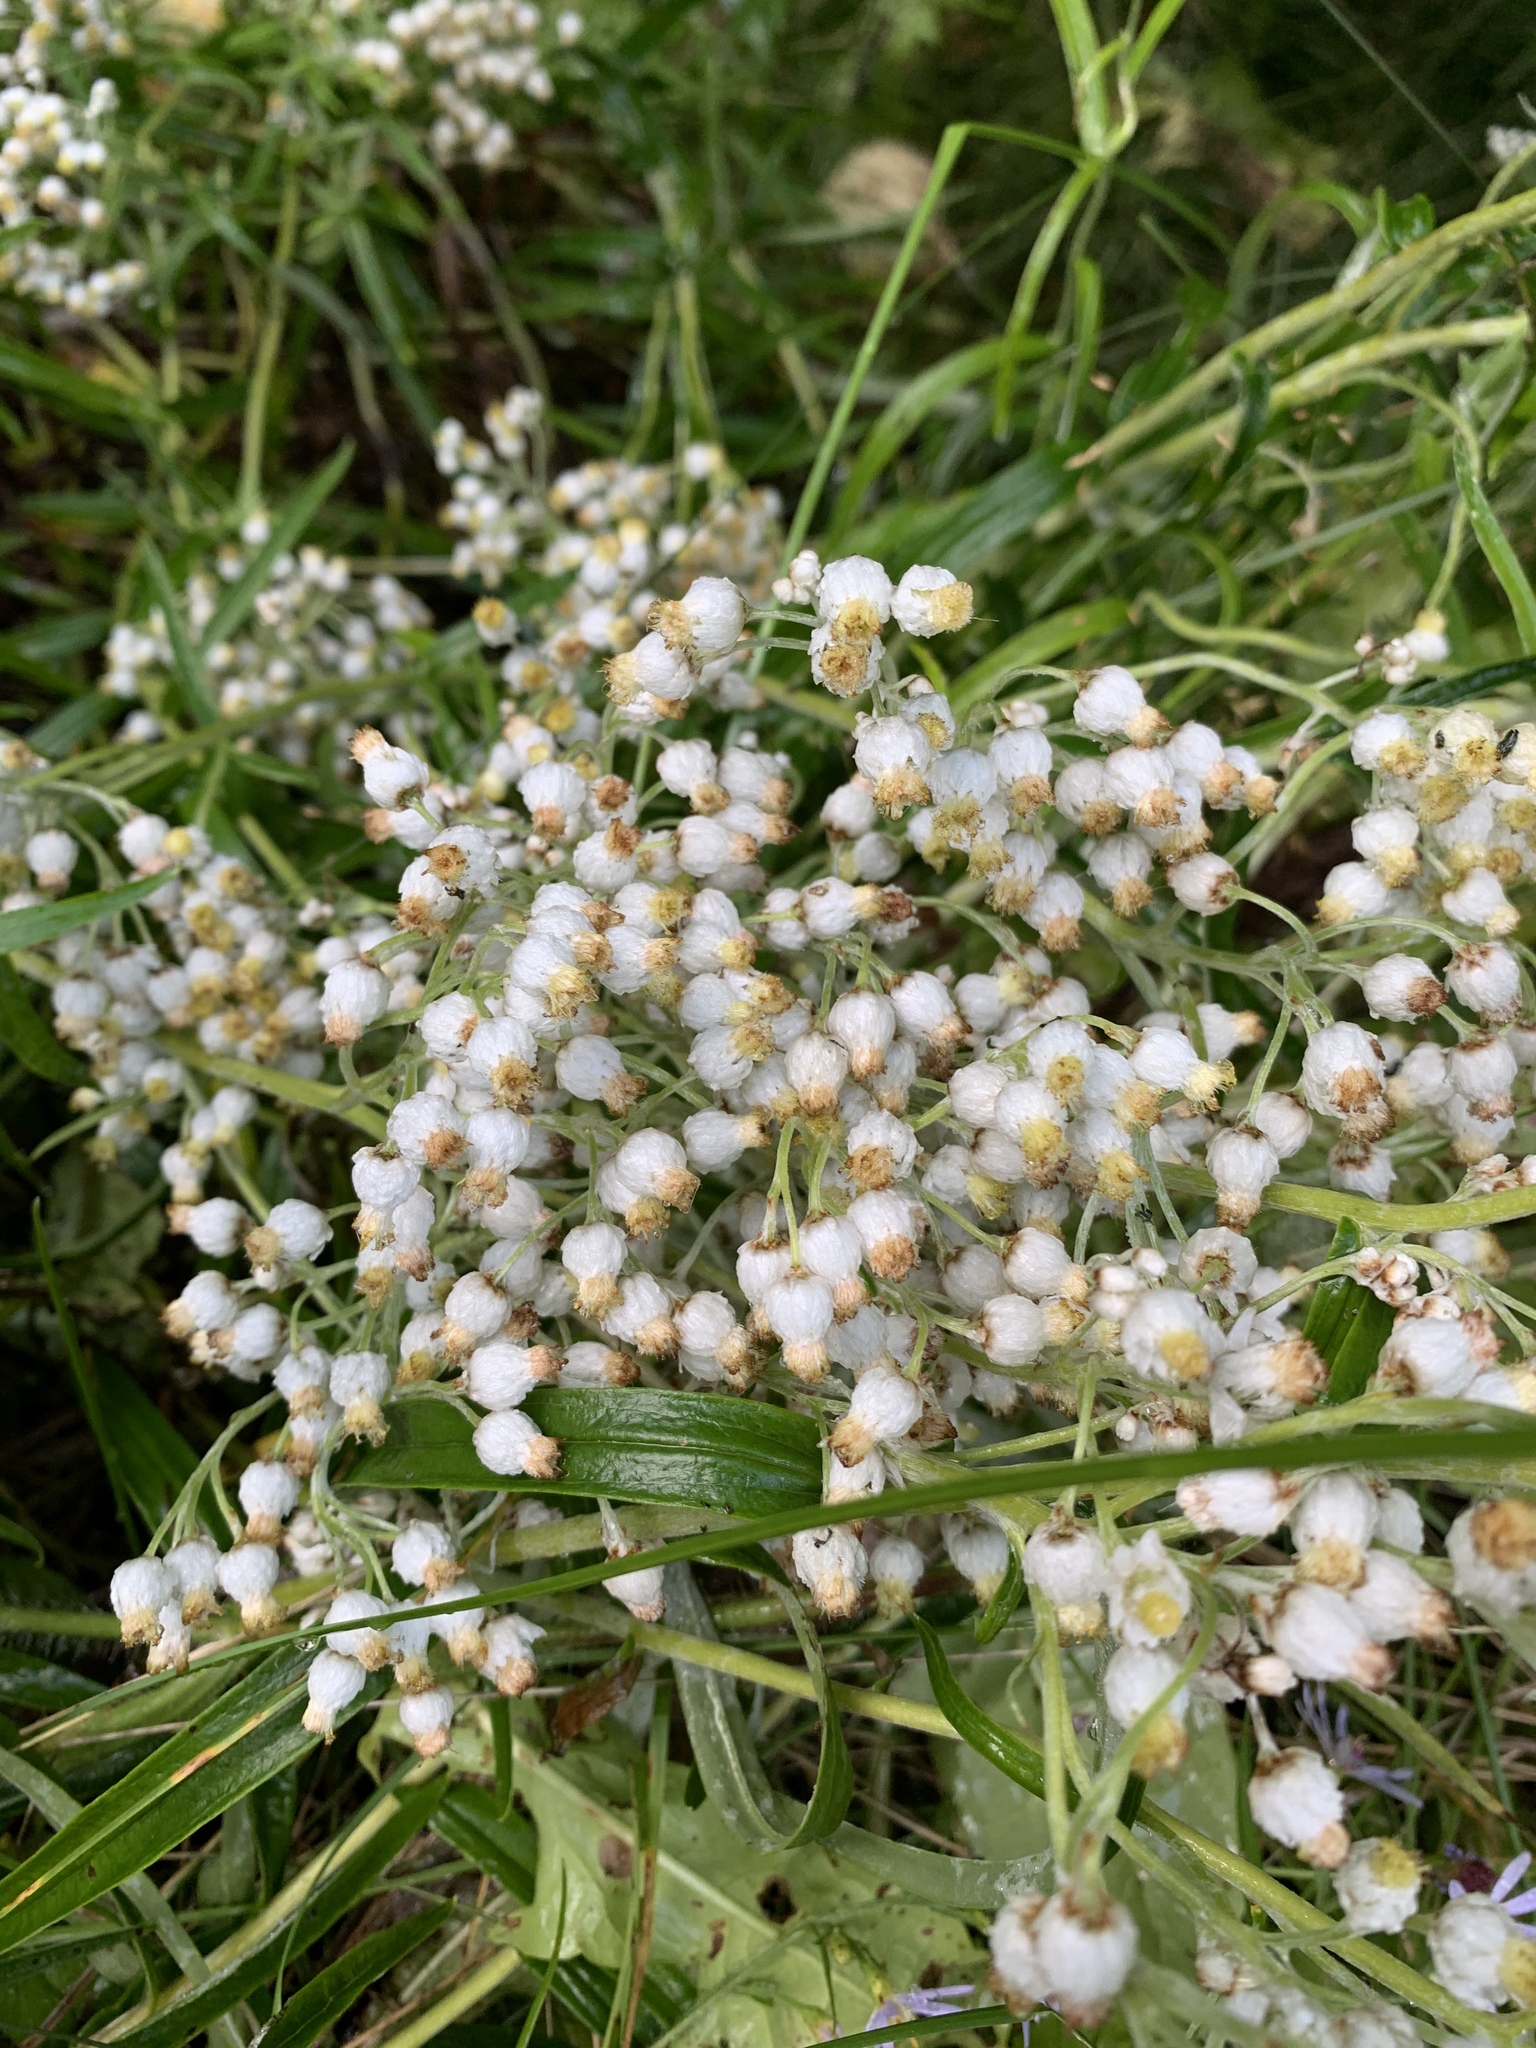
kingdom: Plantae
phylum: Tracheophyta
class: Magnoliopsida
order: Asterales
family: Asteraceae
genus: Anaphalis
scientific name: Anaphalis margaritacea
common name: Pearly everlasting
